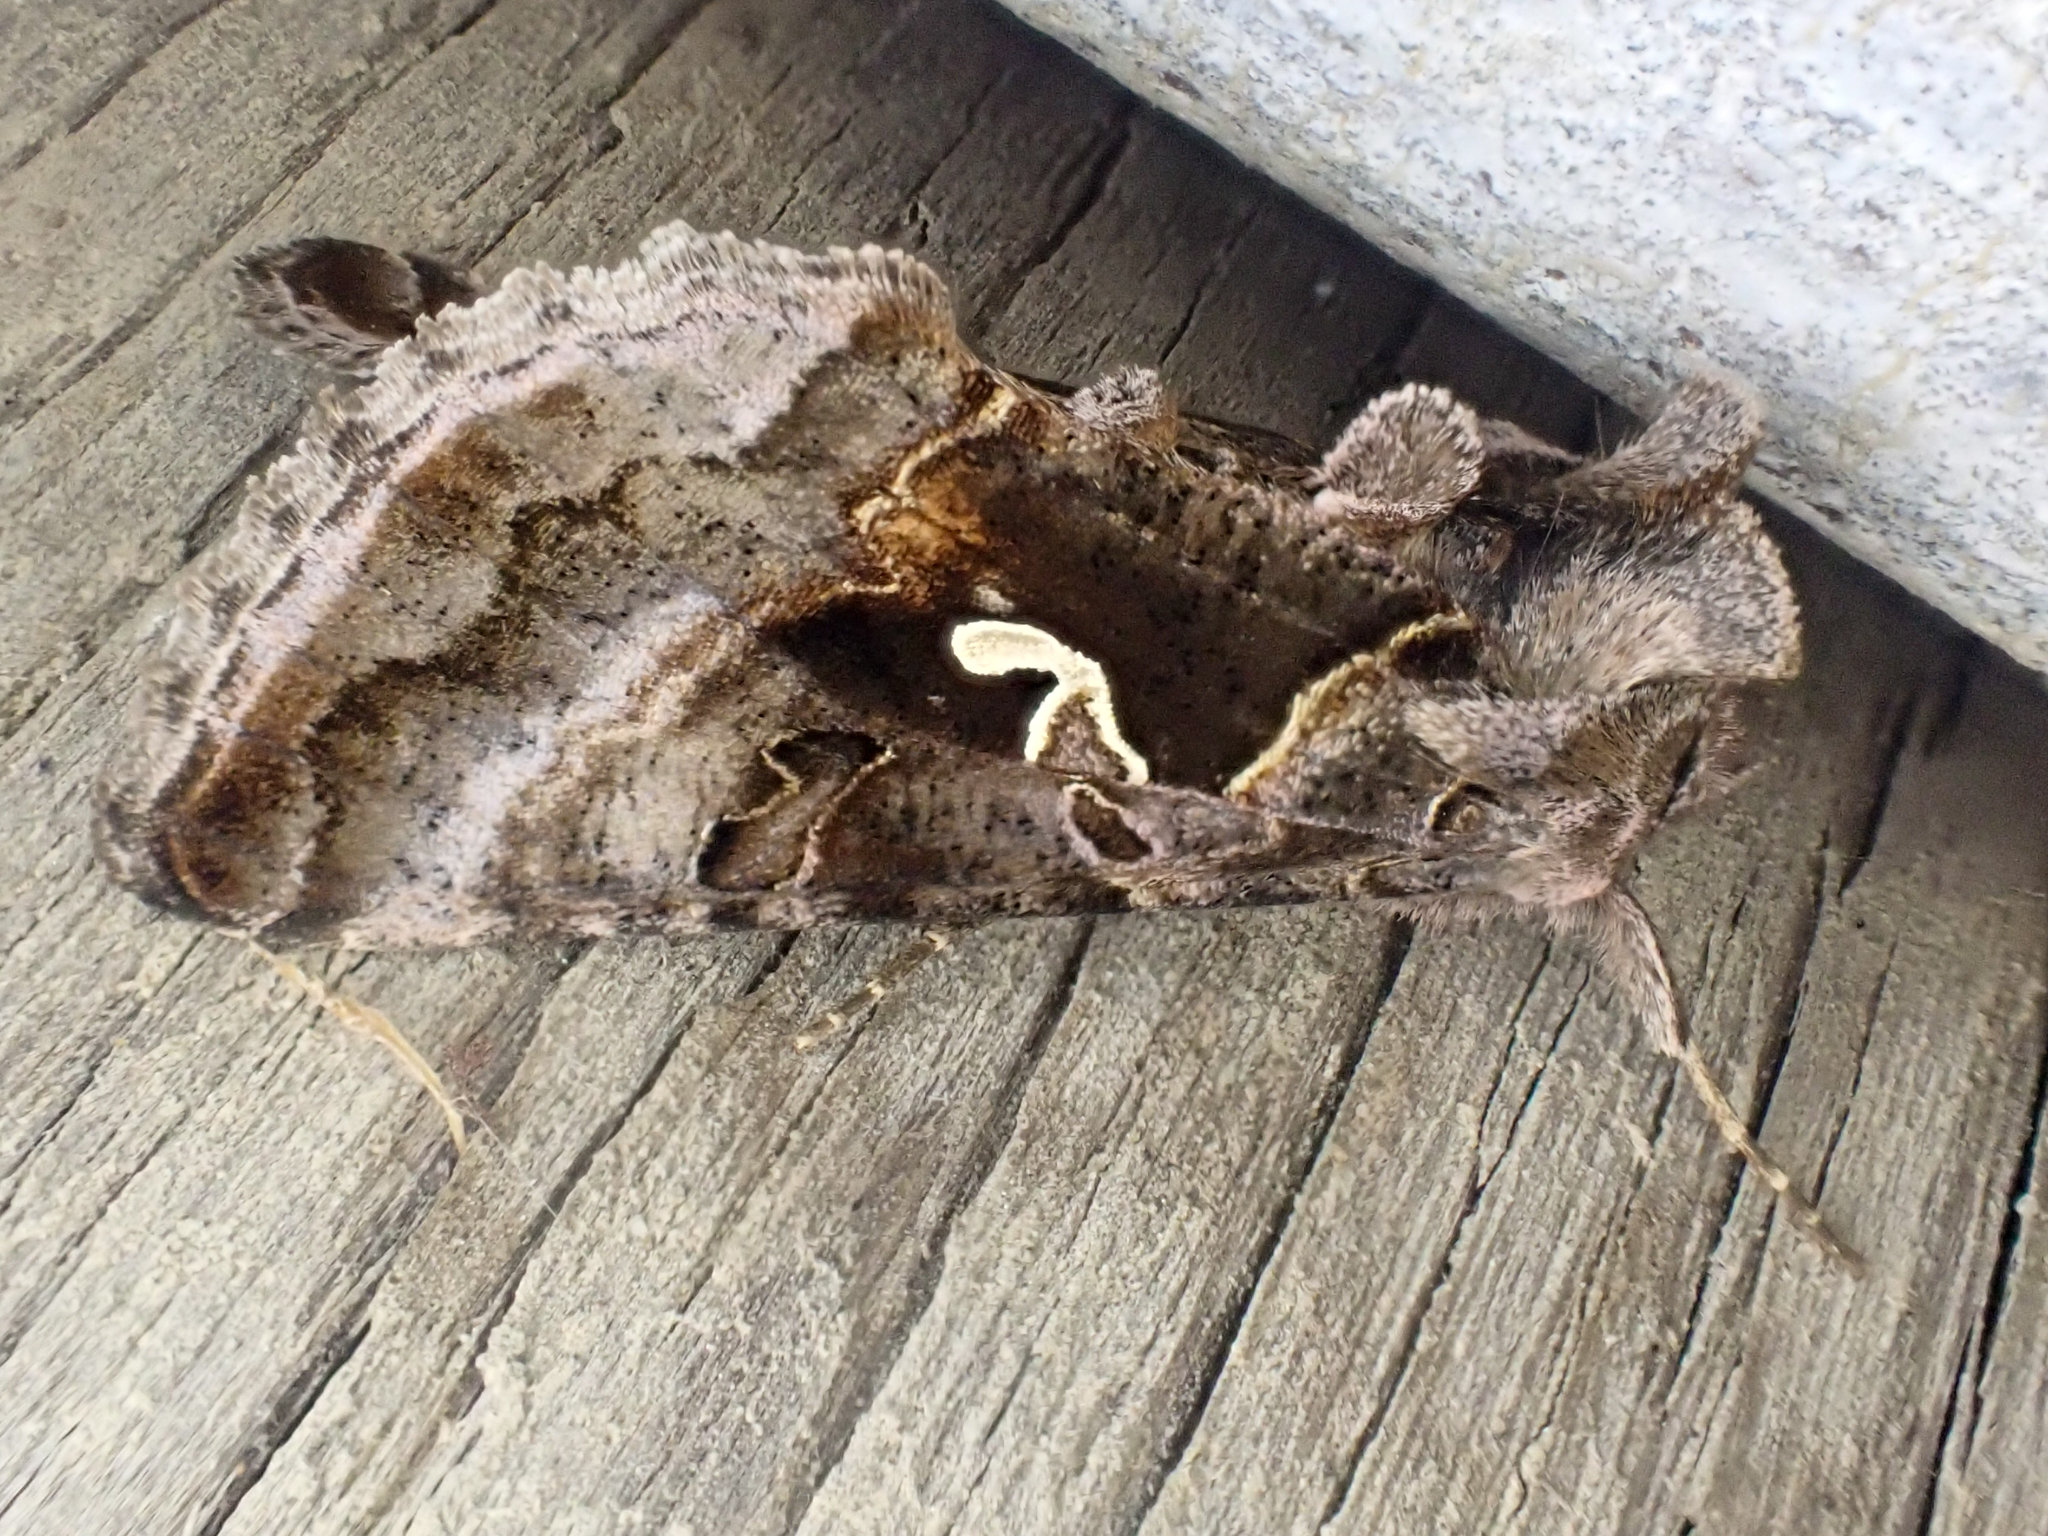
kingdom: Animalia
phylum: Arthropoda
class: Insecta
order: Lepidoptera
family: Noctuidae
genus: Autographa
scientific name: Autographa pseudogamma
